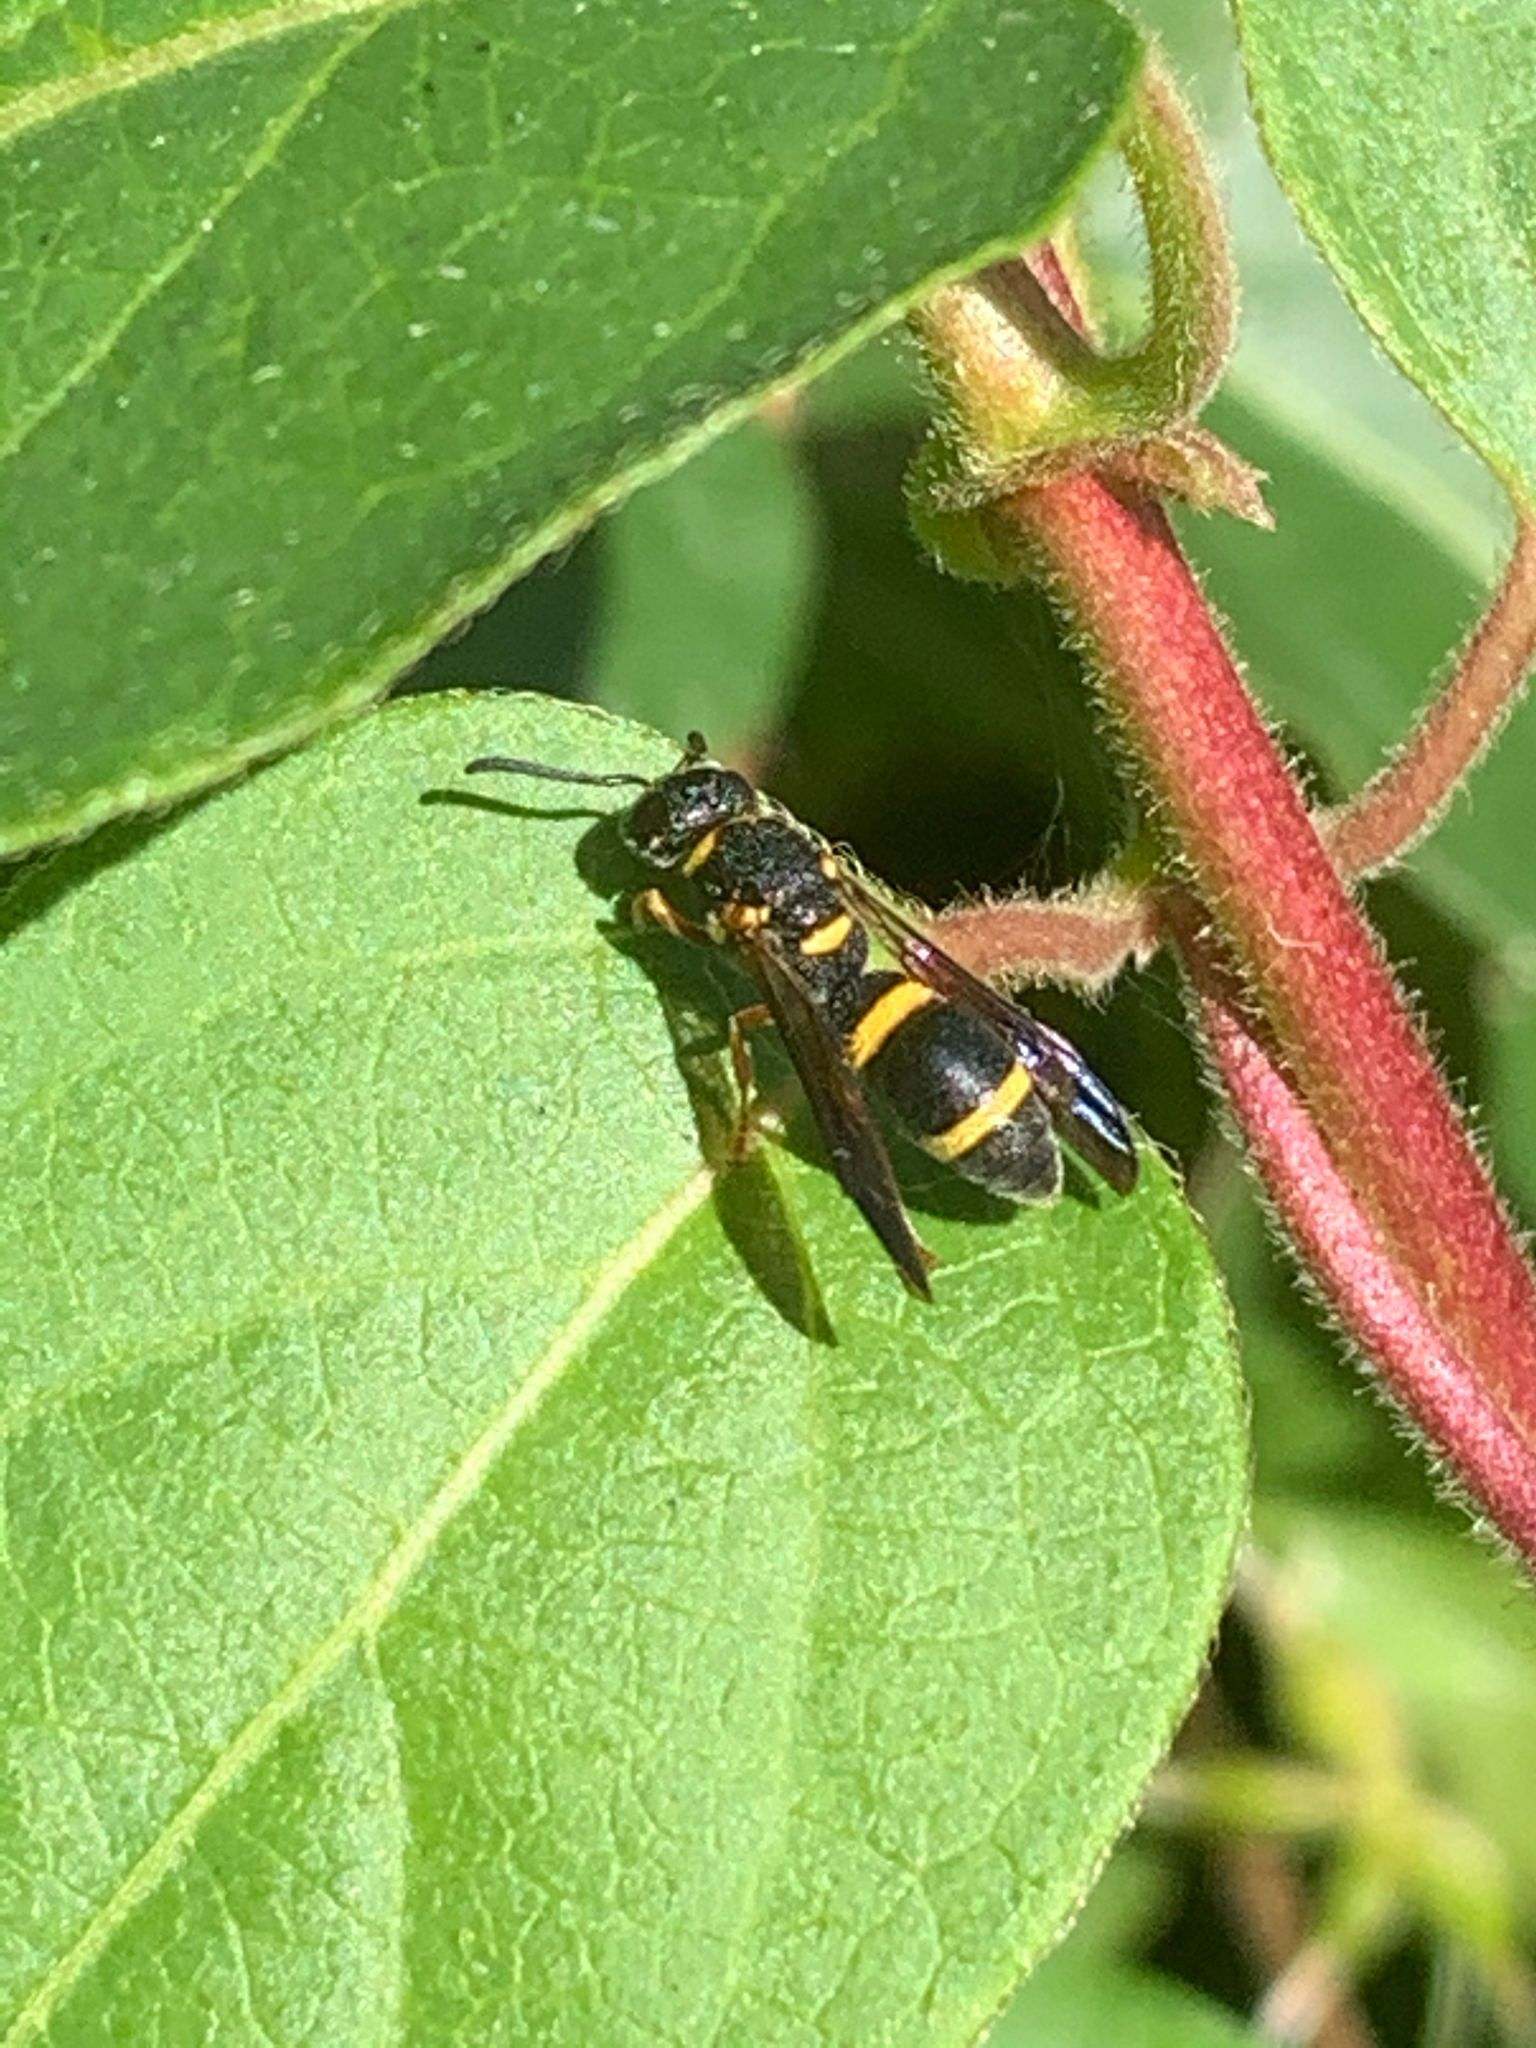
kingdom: Animalia
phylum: Arthropoda
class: Insecta
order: Hymenoptera
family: Eumenidae
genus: Parancistrocerus
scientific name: Parancistrocerus perennis
